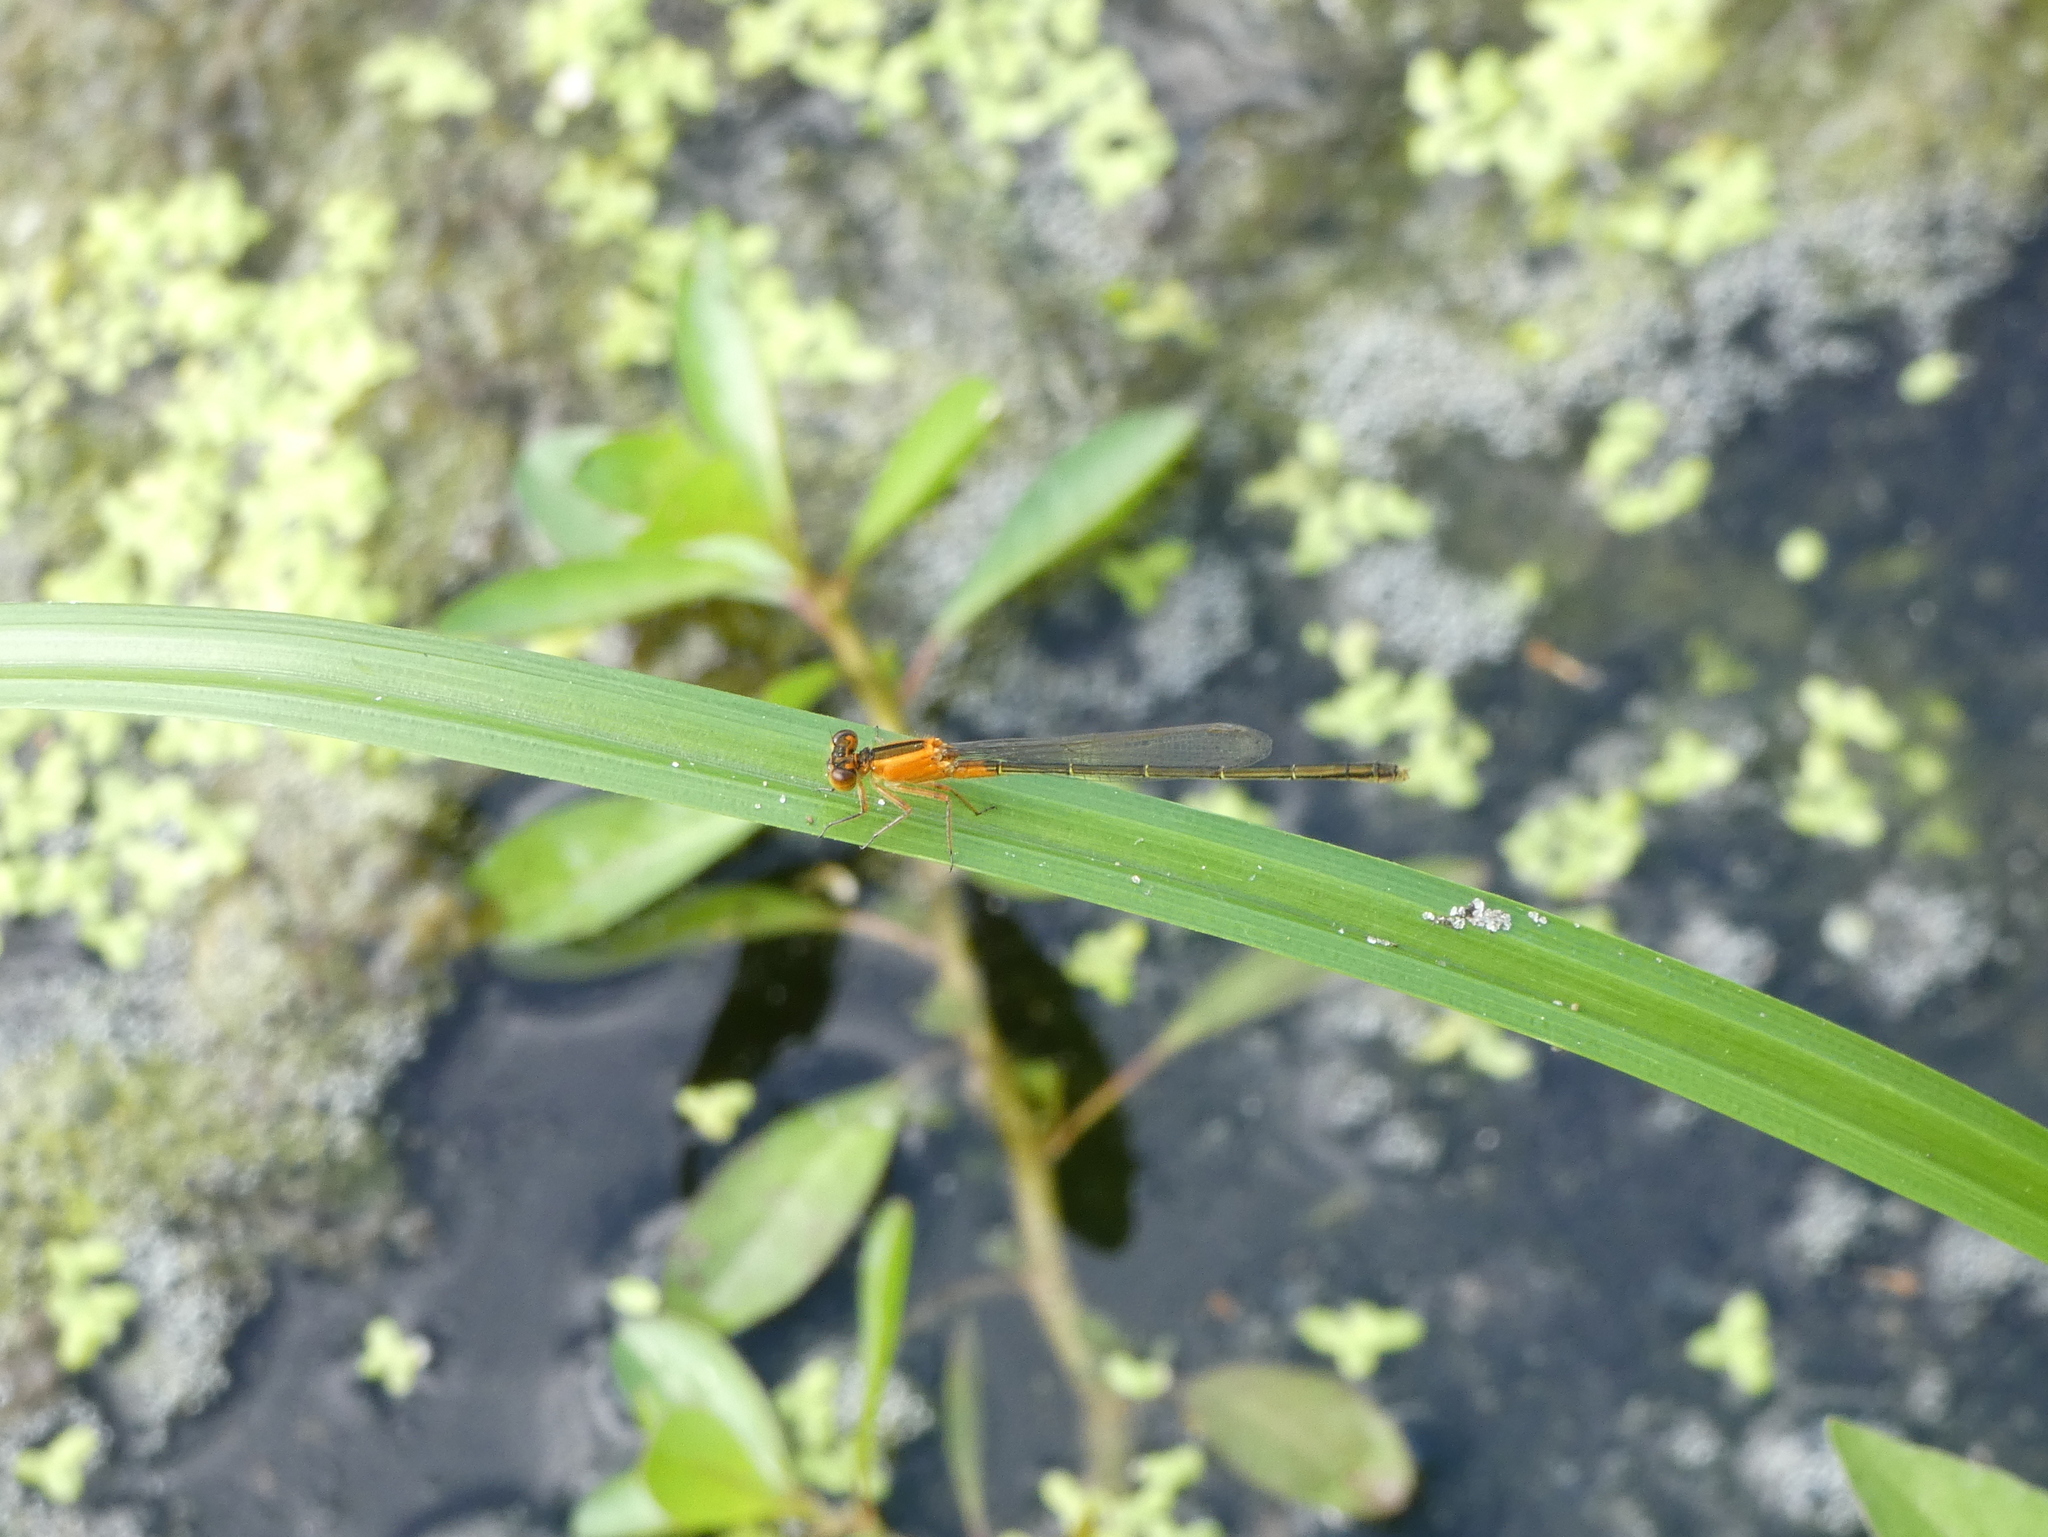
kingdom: Animalia
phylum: Arthropoda
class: Insecta
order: Odonata
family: Coenagrionidae
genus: Ischnura
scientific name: Ischnura ramburii
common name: Rambur's forktail
